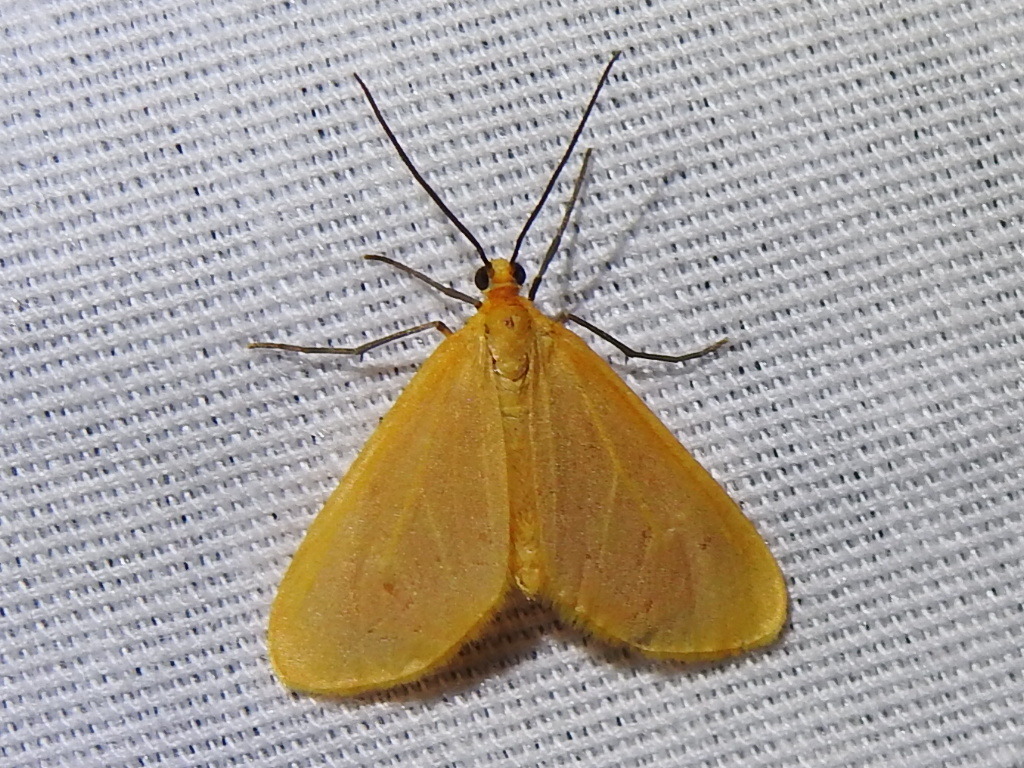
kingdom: Animalia
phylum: Arthropoda
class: Insecta
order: Lepidoptera
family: Geometridae
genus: Eubaphe
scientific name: Eubaphe unicolor
